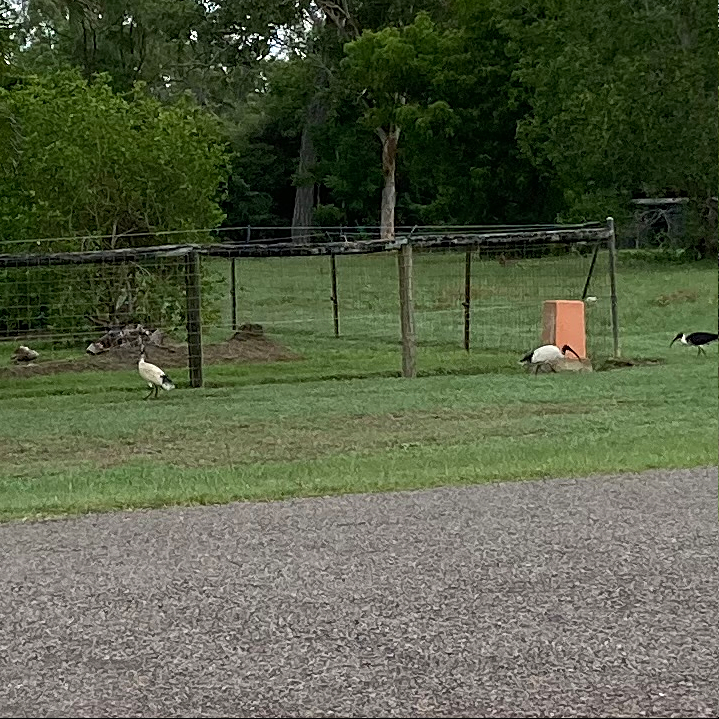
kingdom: Animalia
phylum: Chordata
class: Aves
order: Pelecaniformes
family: Threskiornithidae
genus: Threskiornis
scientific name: Threskiornis molucca
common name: Australian white ibis
